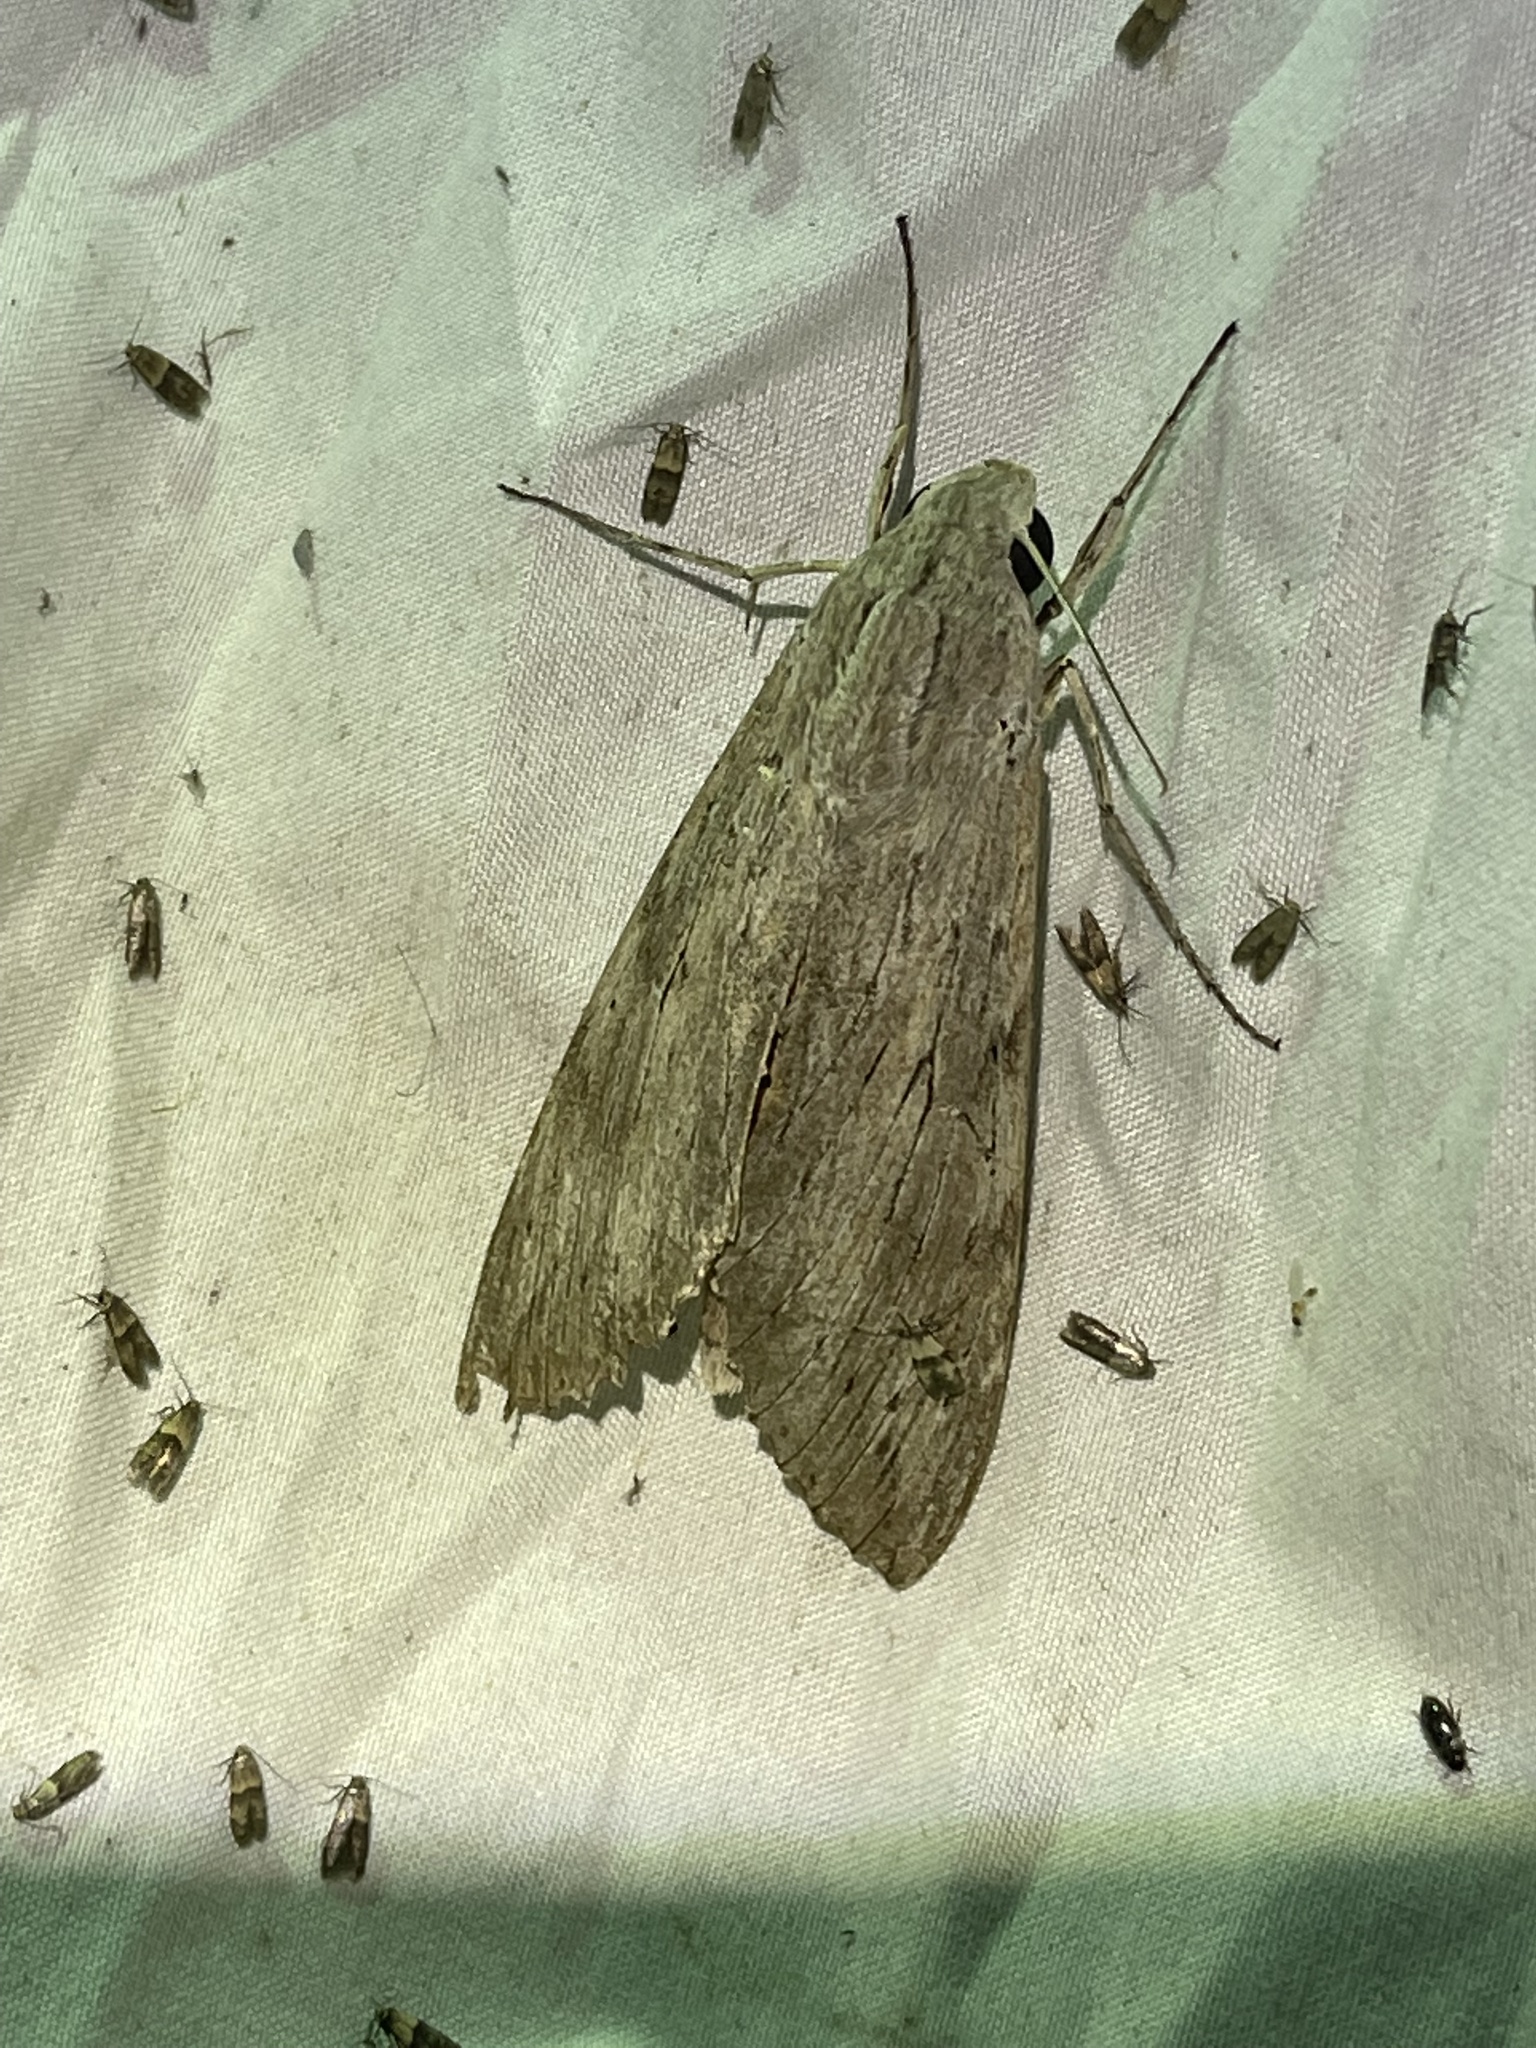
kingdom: Animalia
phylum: Arthropoda
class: Insecta
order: Lepidoptera
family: Sphingidae
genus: Erinnyis
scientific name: Erinnyis ello
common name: Ello sphinx
